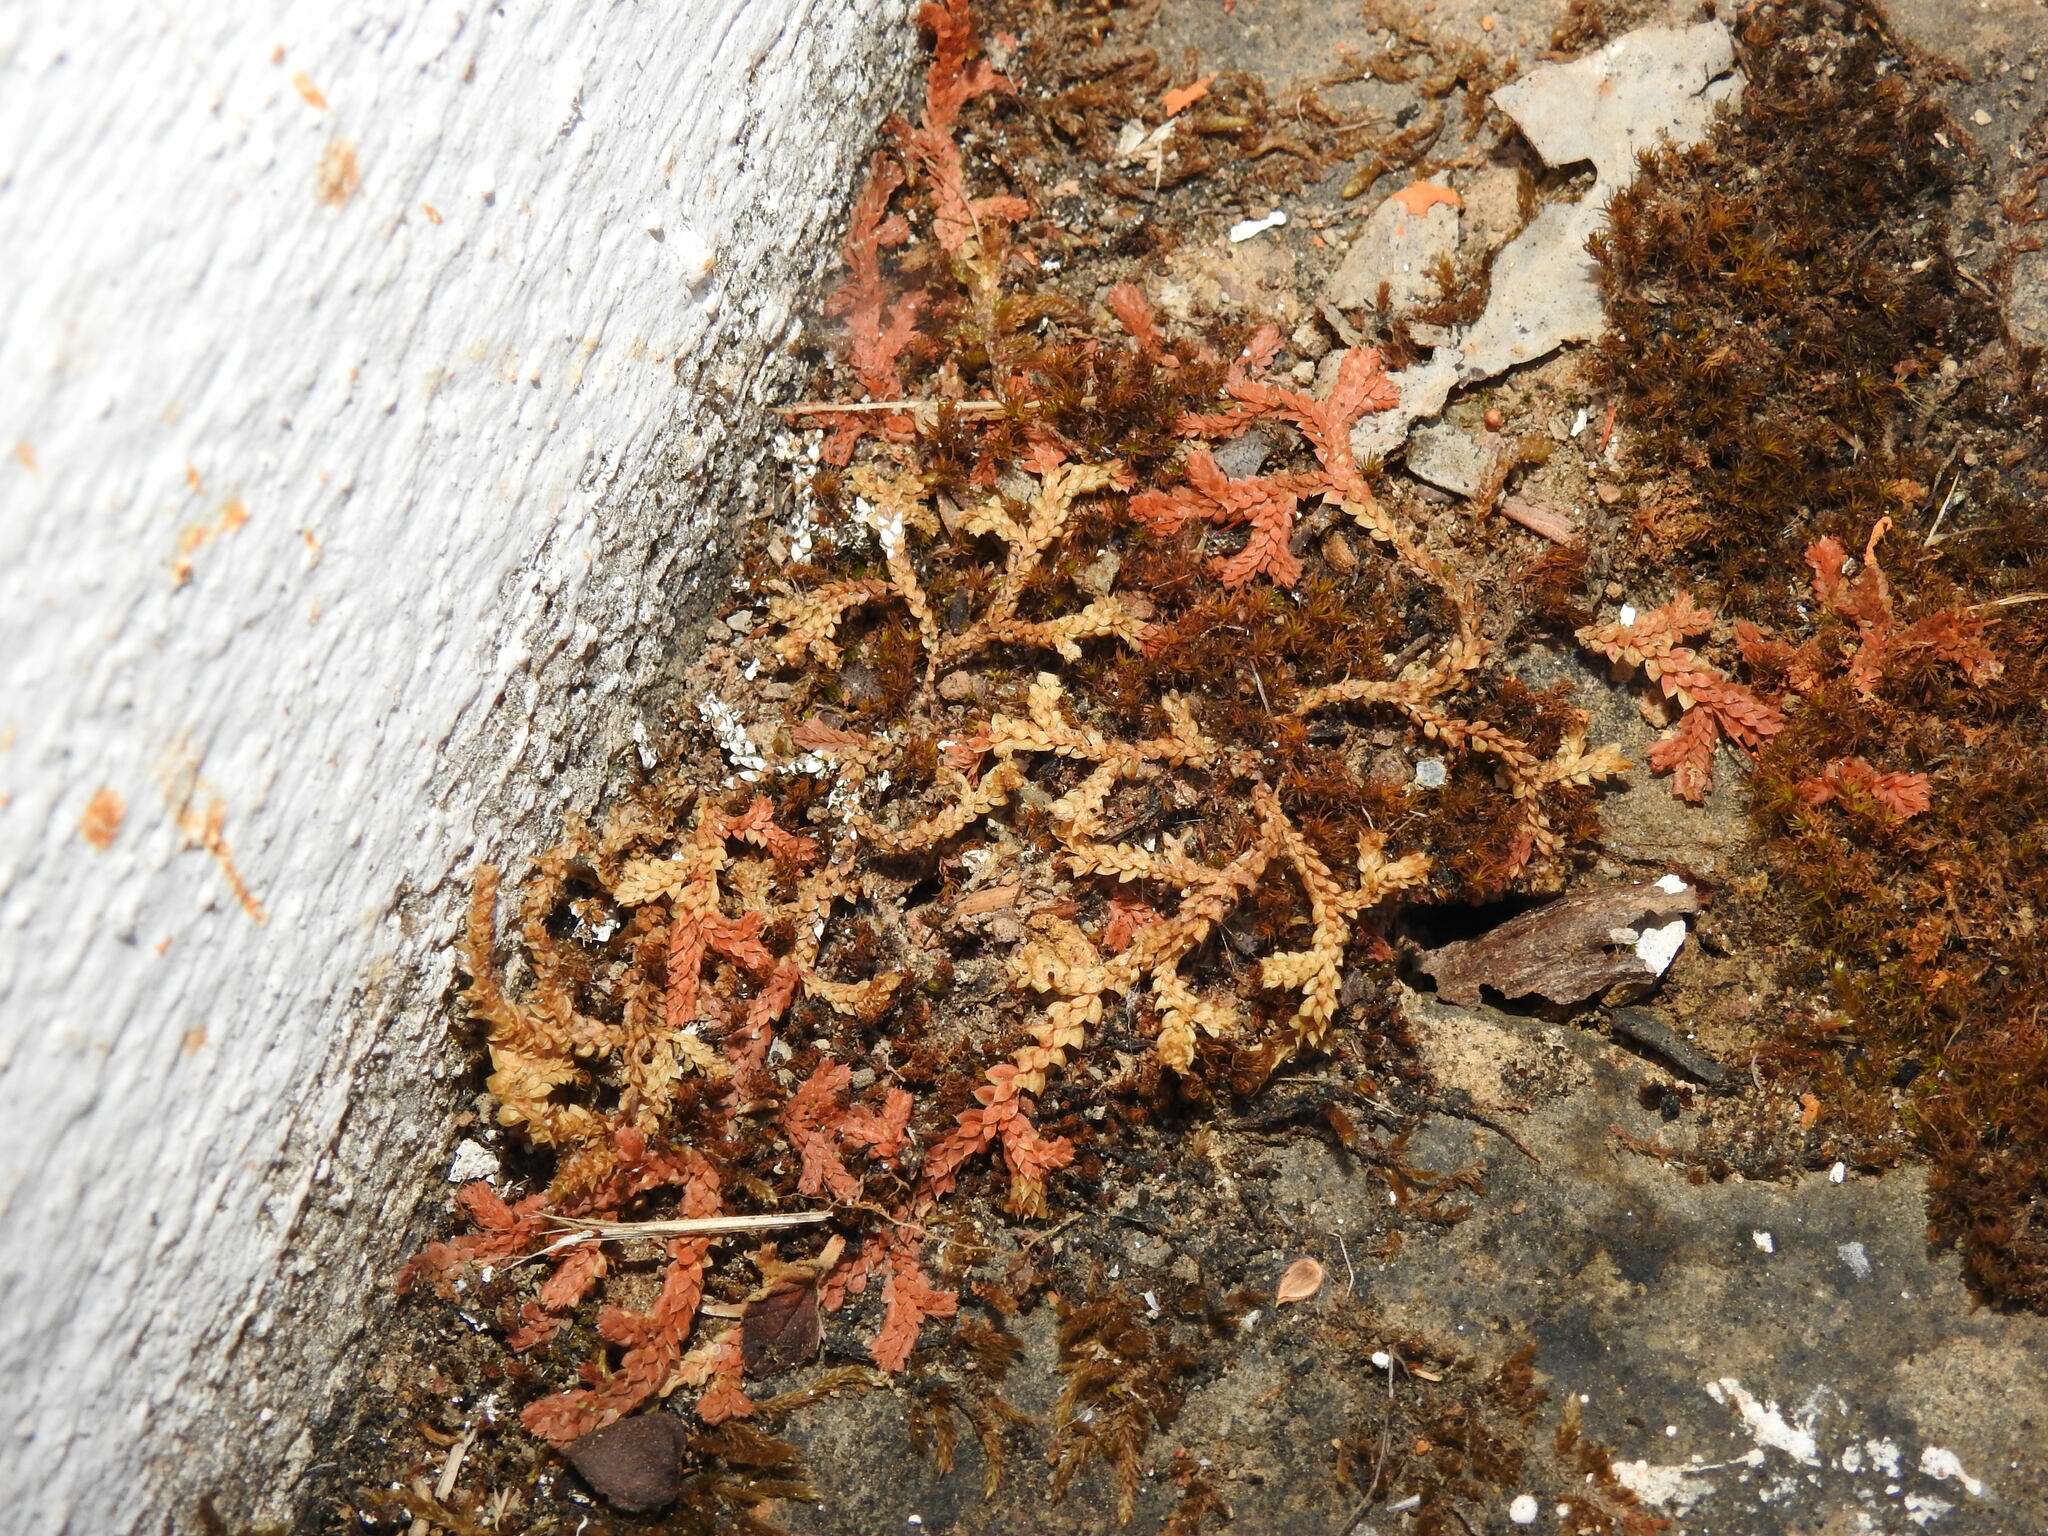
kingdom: Plantae
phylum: Tracheophyta
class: Lycopodiopsida
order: Selaginellales
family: Selaginellaceae
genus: Selaginella
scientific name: Selaginella denticulata
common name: Toothed-leaved clubmoss
